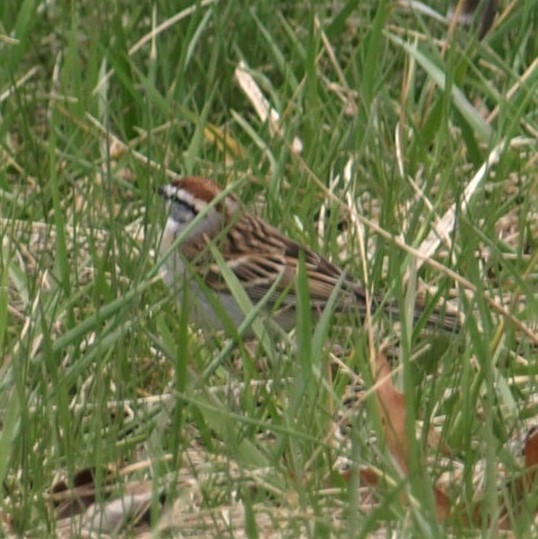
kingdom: Animalia
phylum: Chordata
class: Aves
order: Passeriformes
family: Passerellidae
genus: Spizella
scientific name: Spizella passerina
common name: Chipping sparrow
